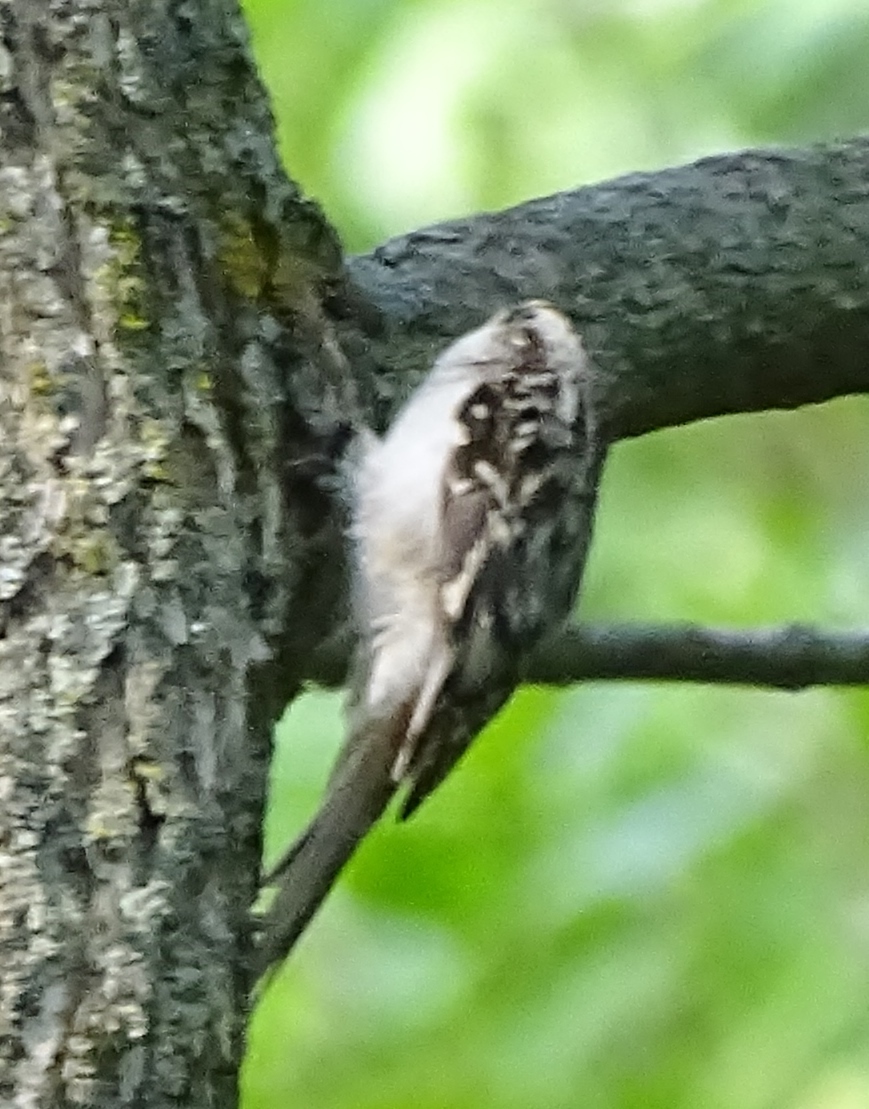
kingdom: Animalia
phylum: Chordata
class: Aves
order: Passeriformes
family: Certhiidae
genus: Certhia
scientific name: Certhia americana
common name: Brown creeper
